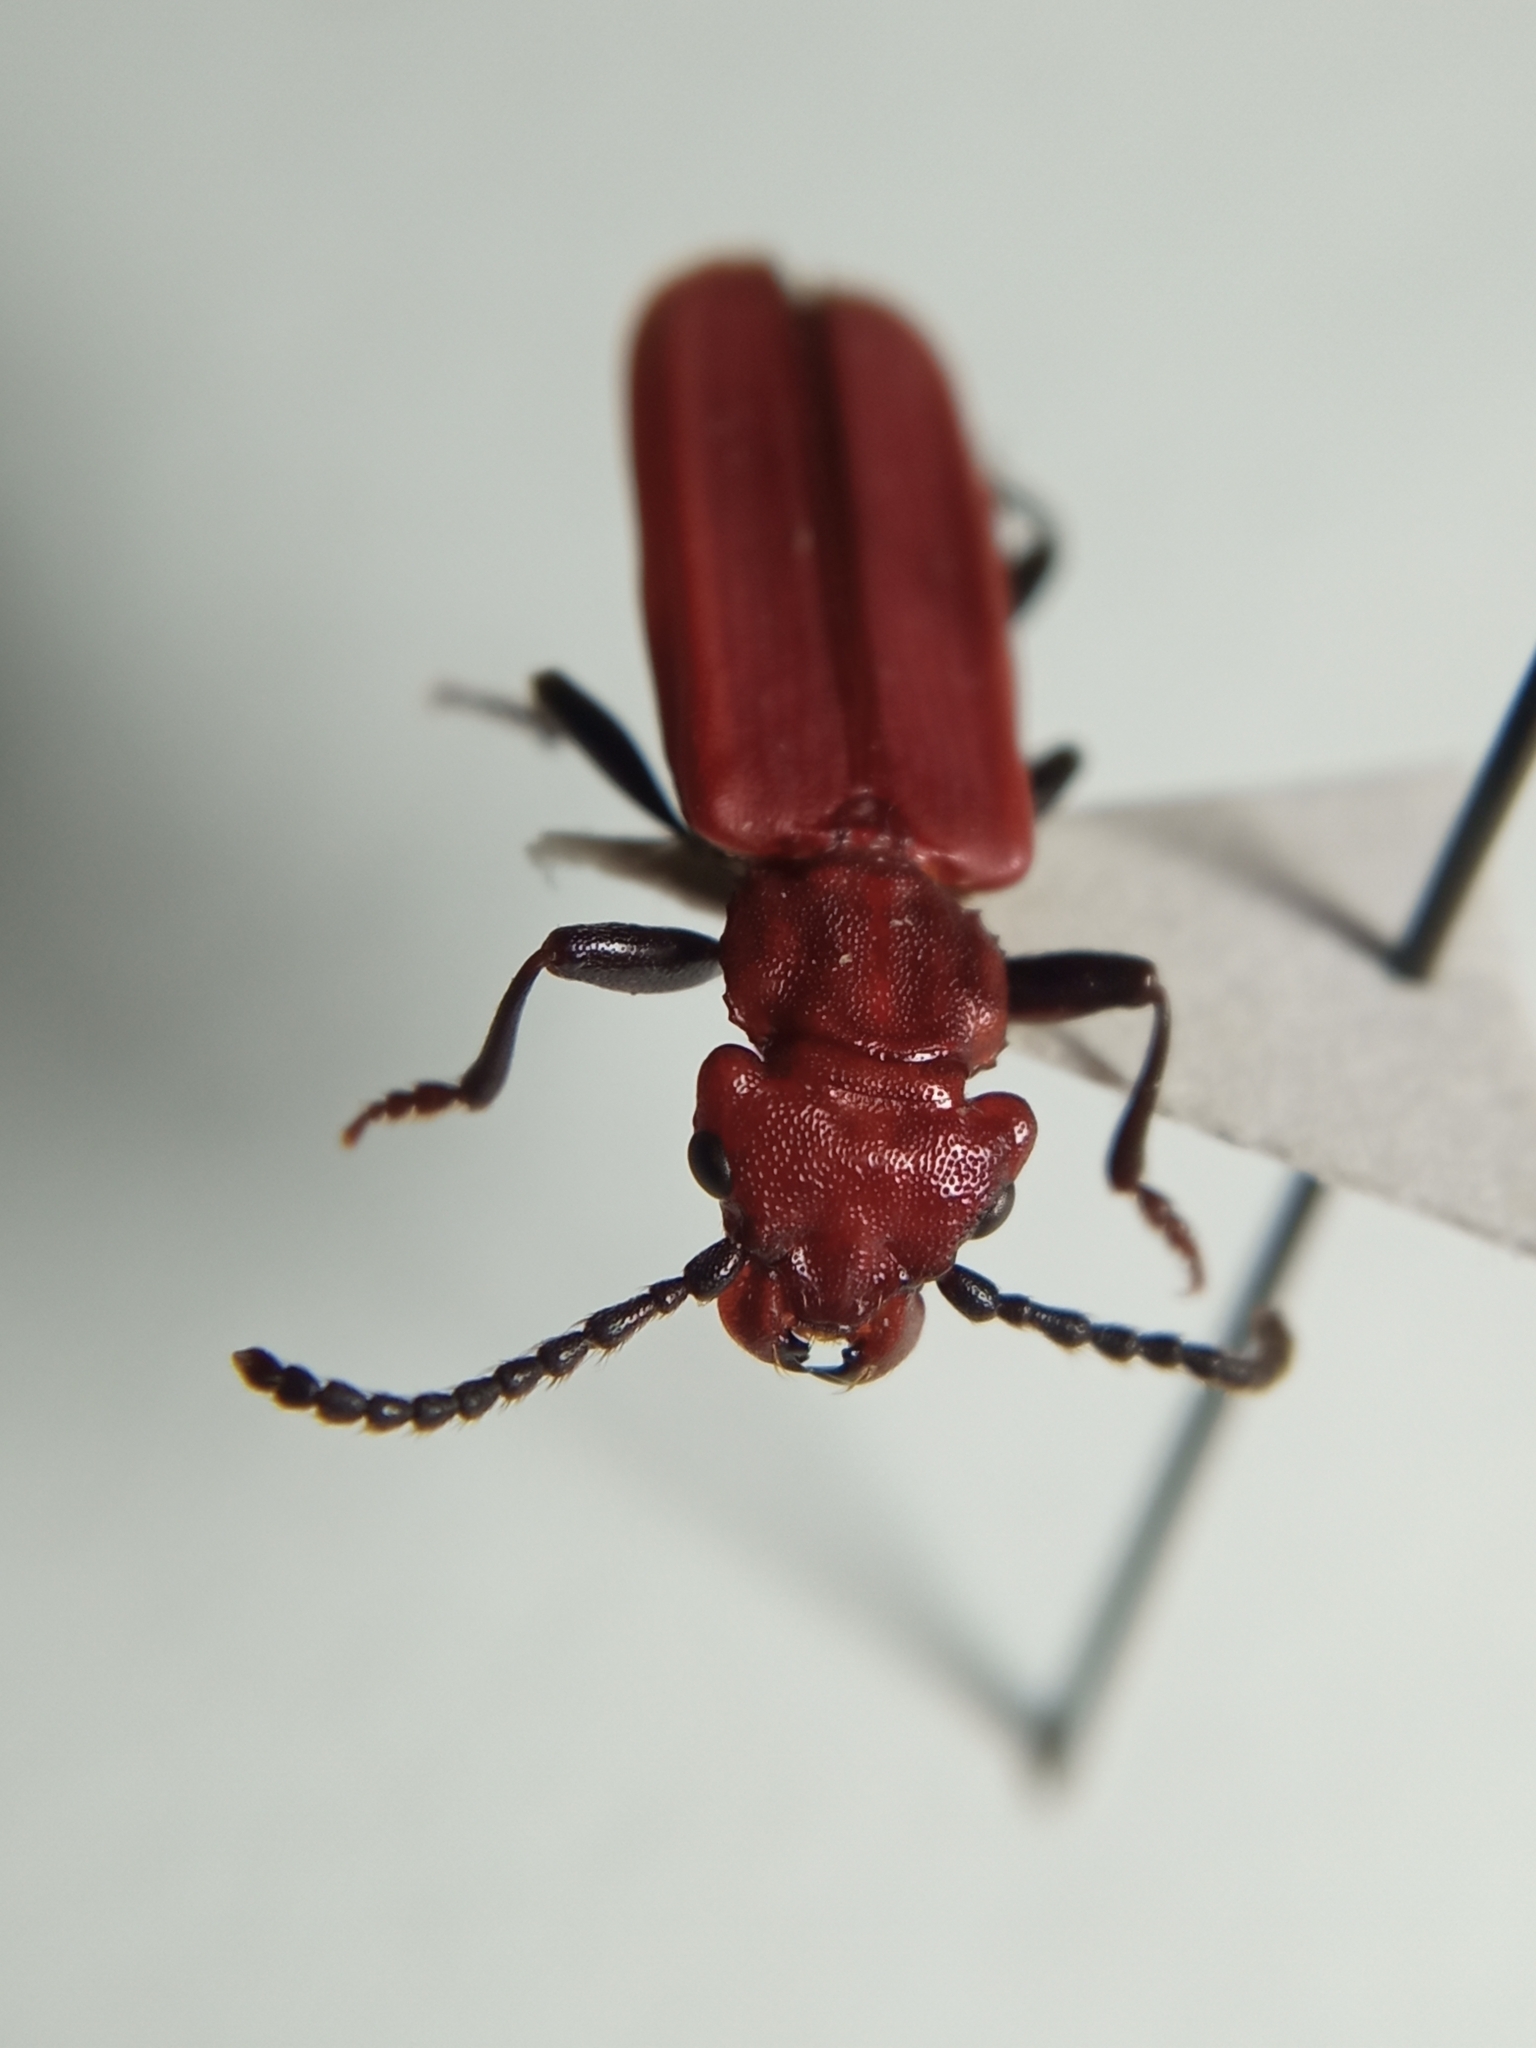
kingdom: Animalia
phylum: Arthropoda
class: Insecta
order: Coleoptera
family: Cucujidae
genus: Cucujus
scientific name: Cucujus haematodes
